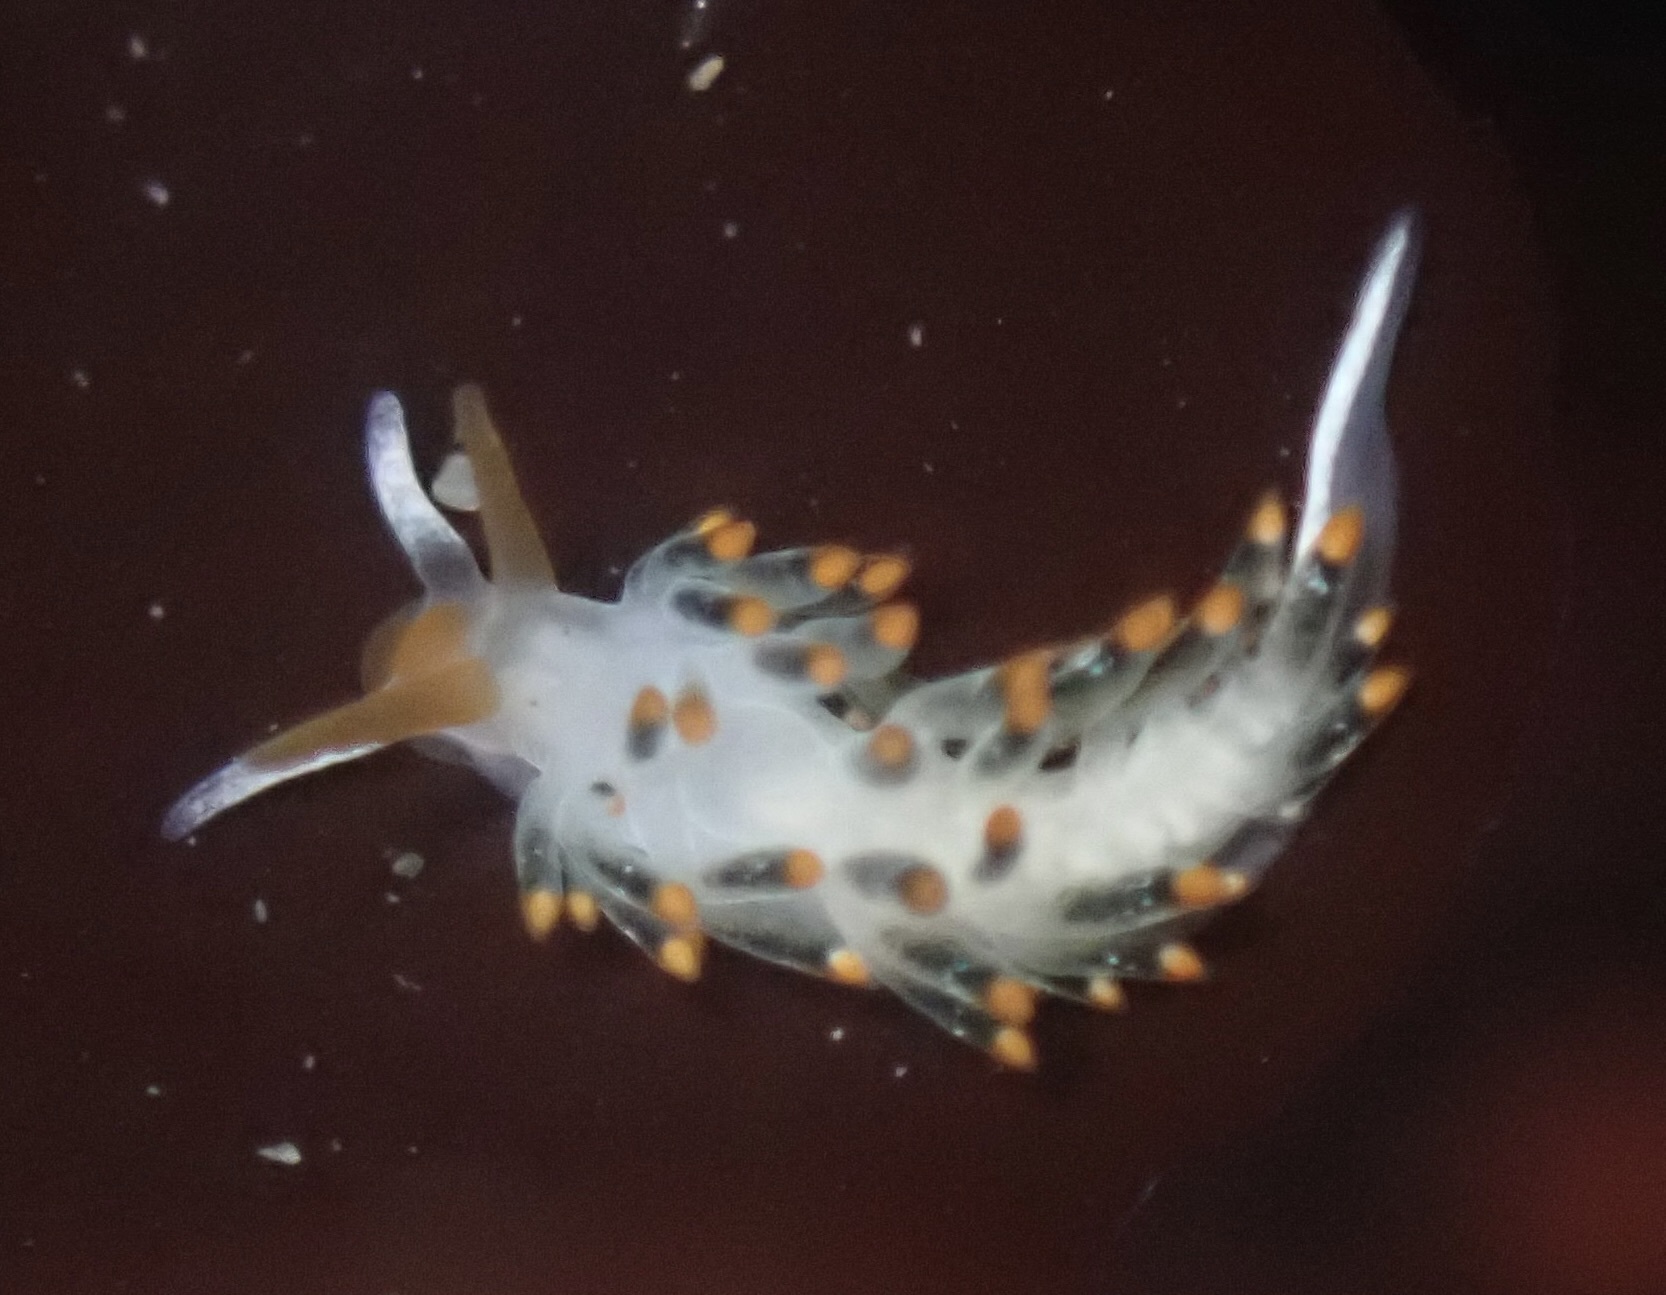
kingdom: Animalia
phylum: Mollusca
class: Gastropoda
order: Nudibranchia
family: Trinchesiidae
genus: Diaphoreolis
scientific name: Diaphoreolis lagunae
